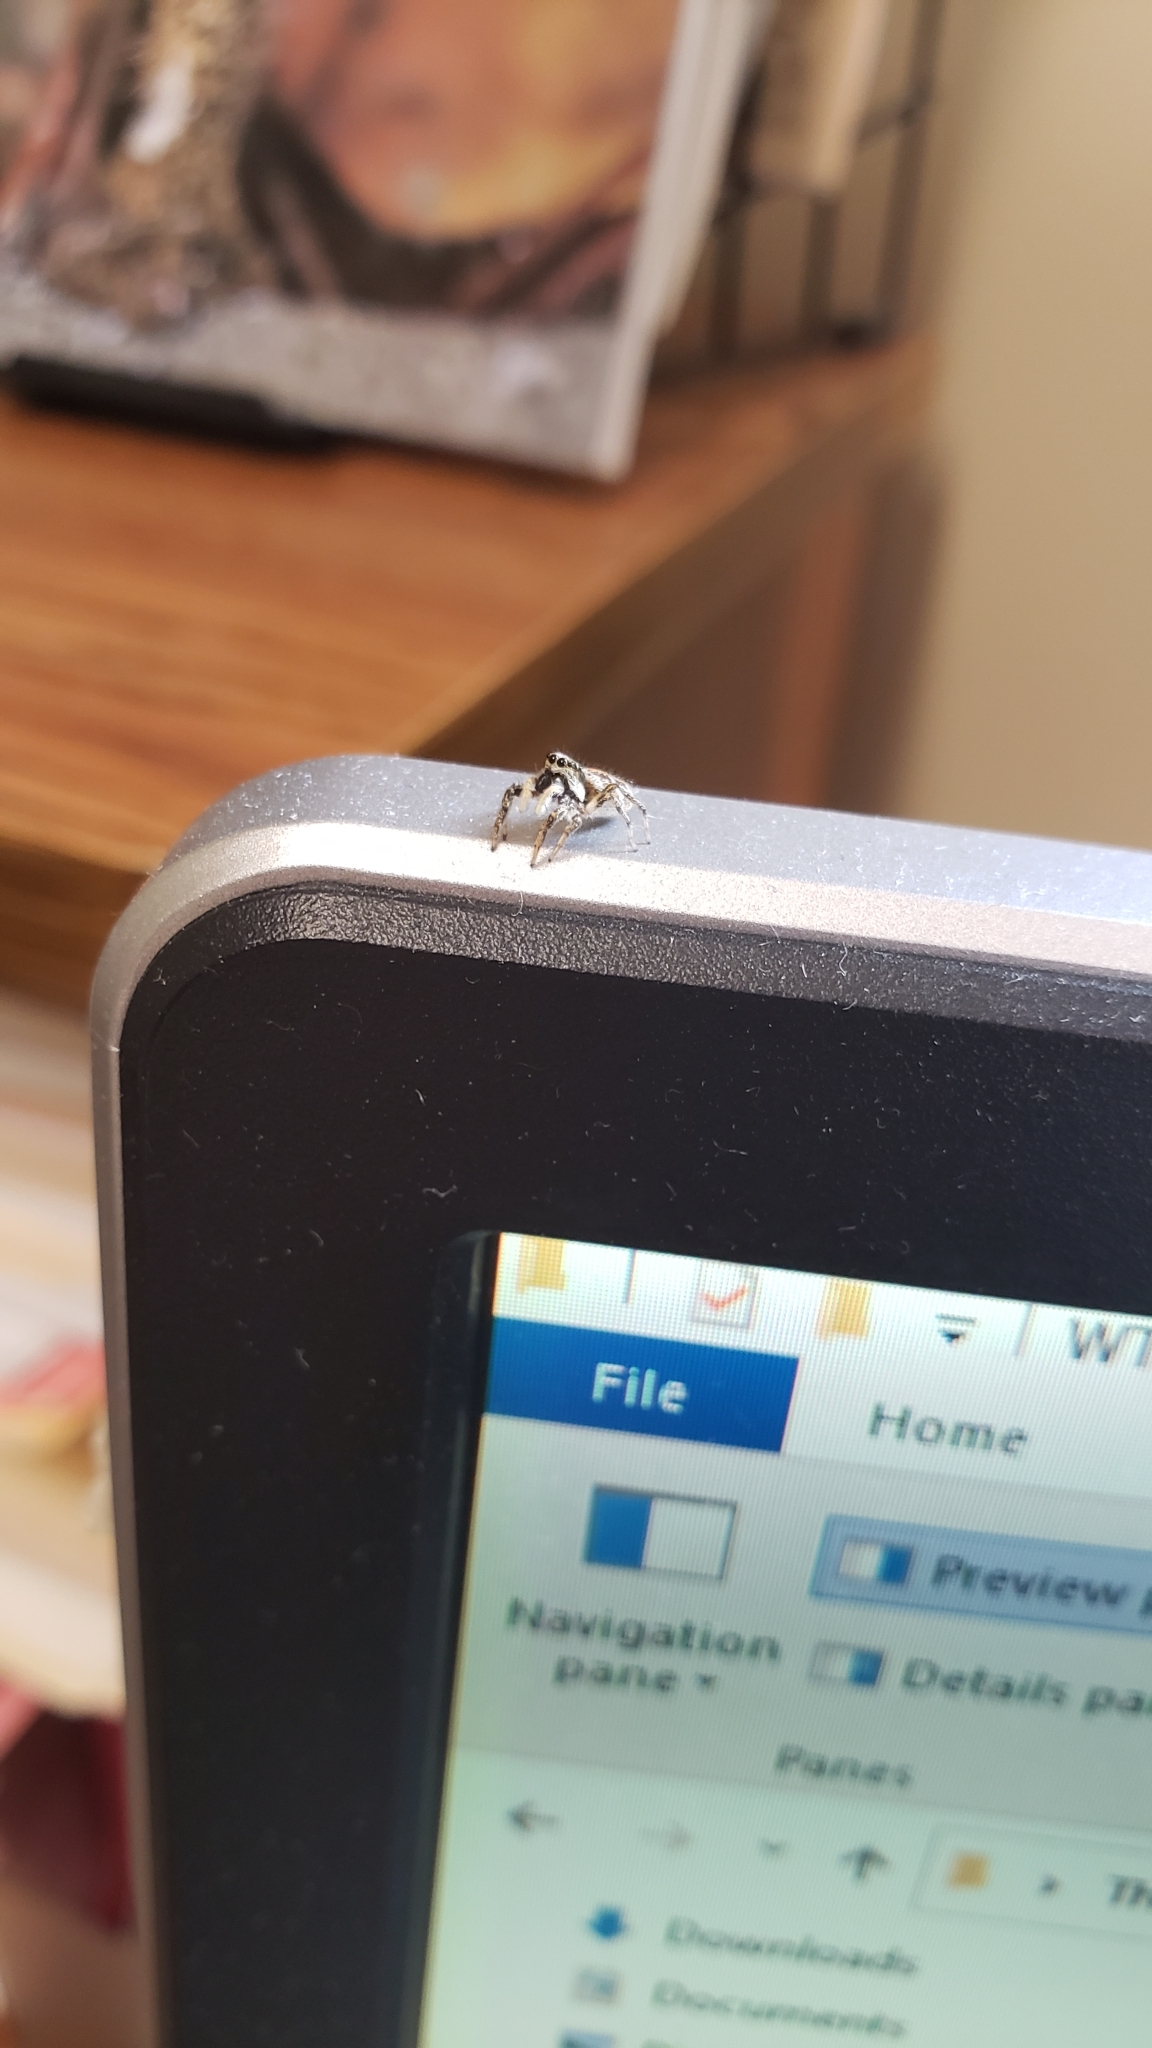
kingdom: Animalia
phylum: Arthropoda
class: Arachnida
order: Araneae
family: Salticidae
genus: Salticus
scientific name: Salticus scenicus
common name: Zebra jumper
